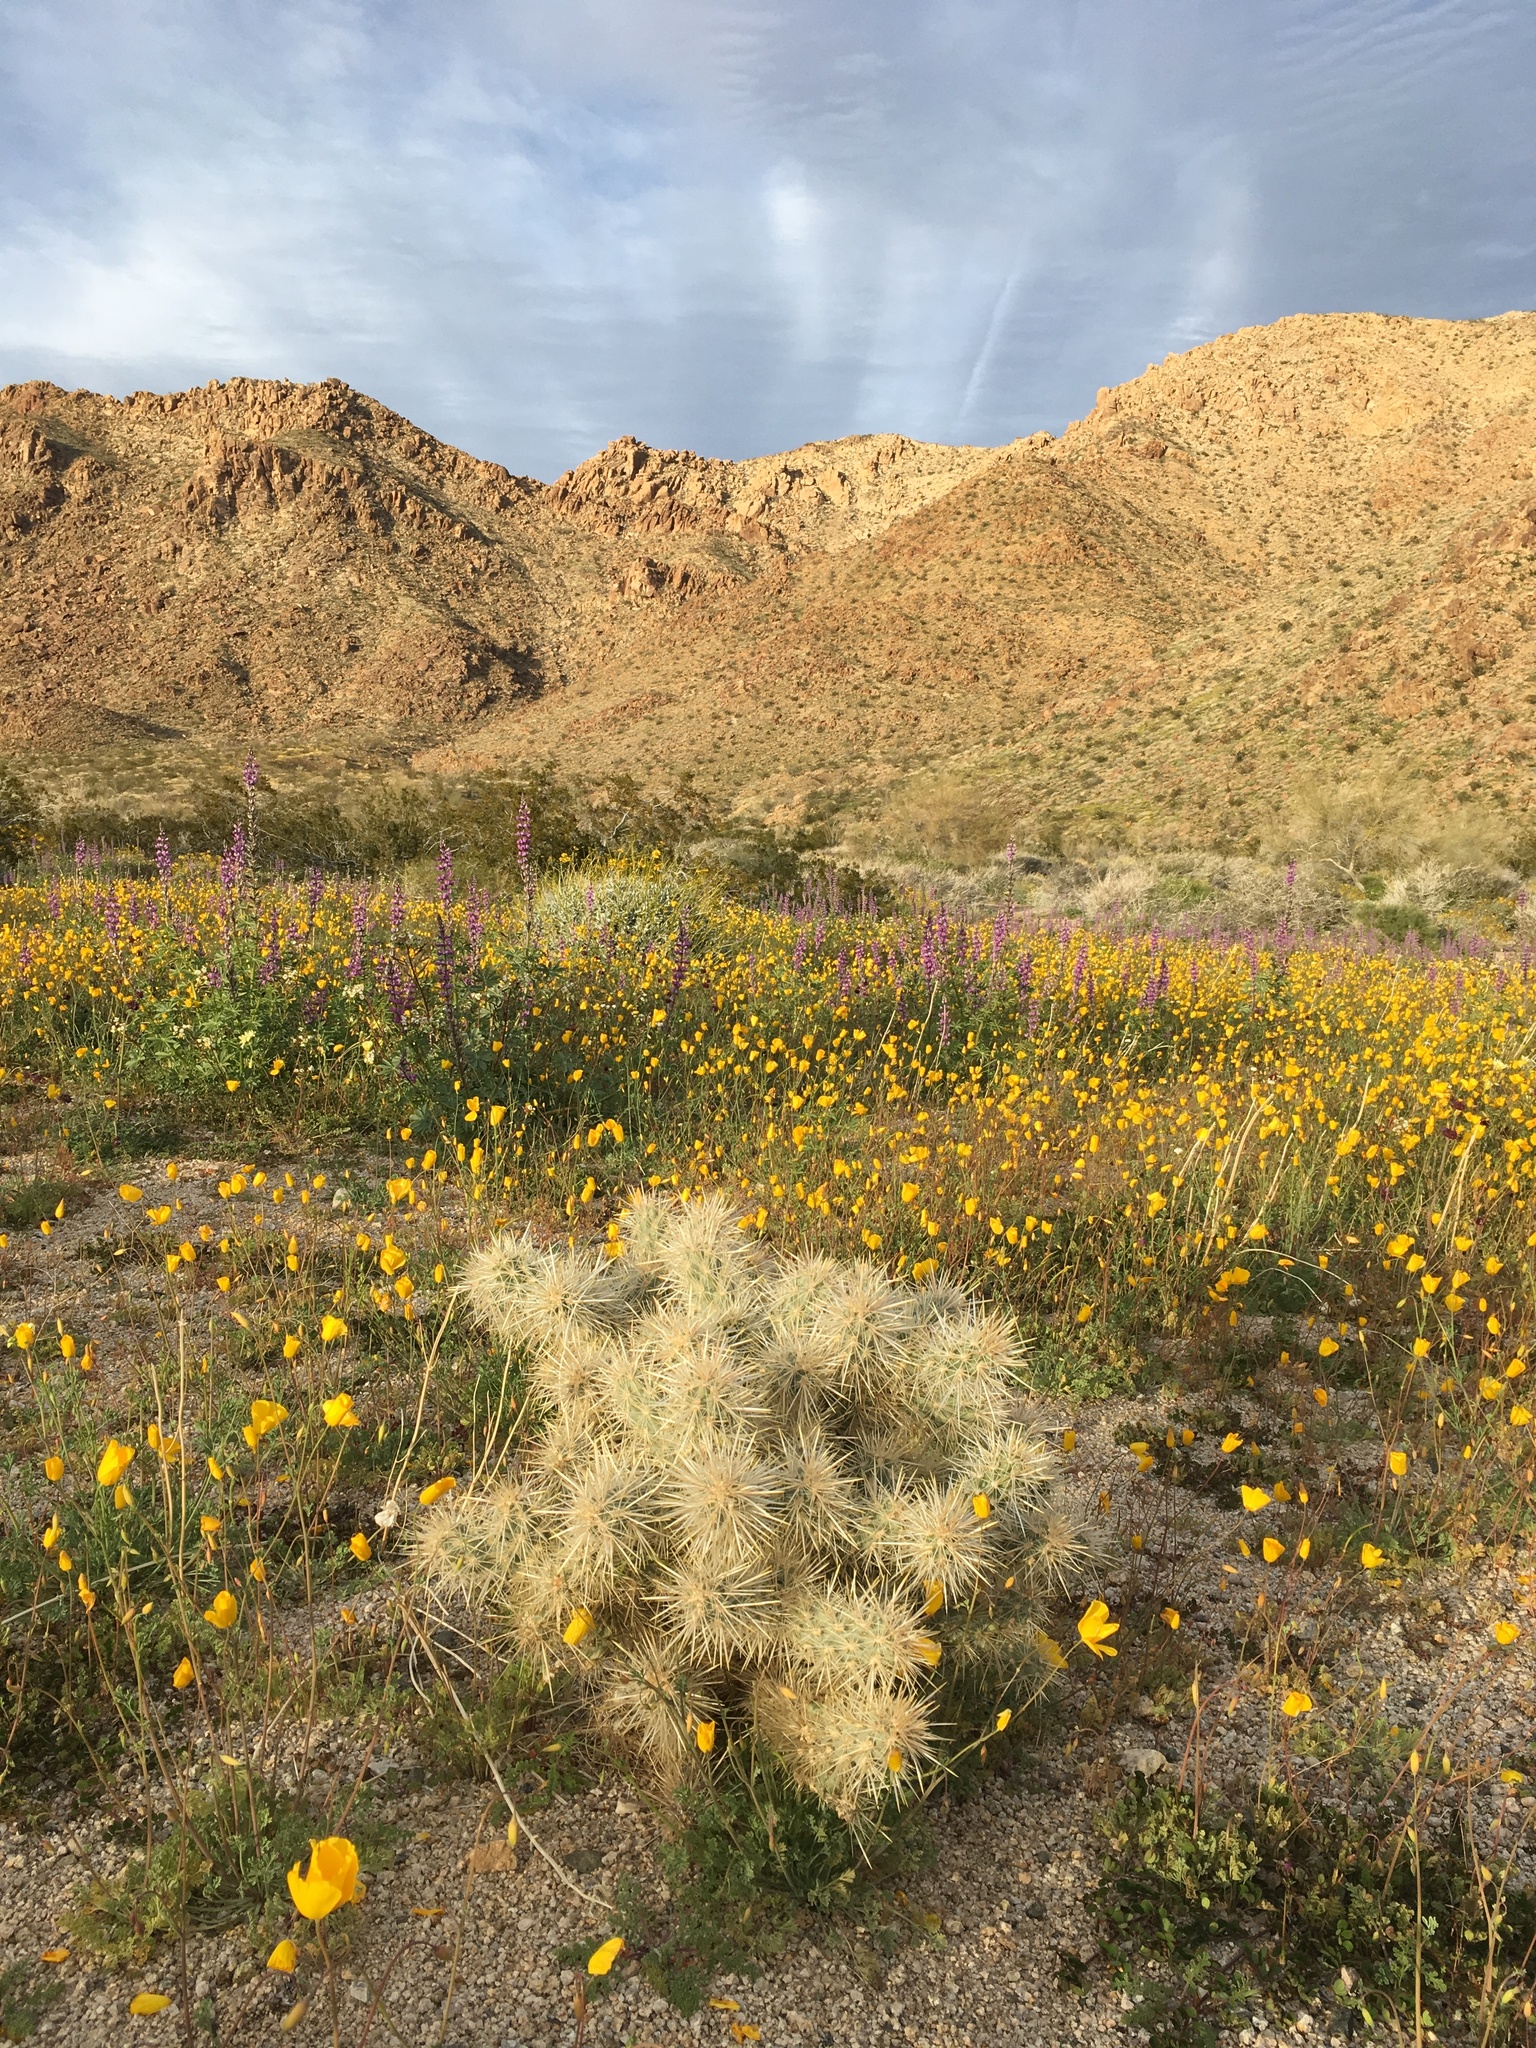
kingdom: Plantae
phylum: Tracheophyta
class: Magnoliopsida
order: Caryophyllales
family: Cactaceae
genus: Cylindropuntia
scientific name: Cylindropuntia echinocarpa
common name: Ground cholla
